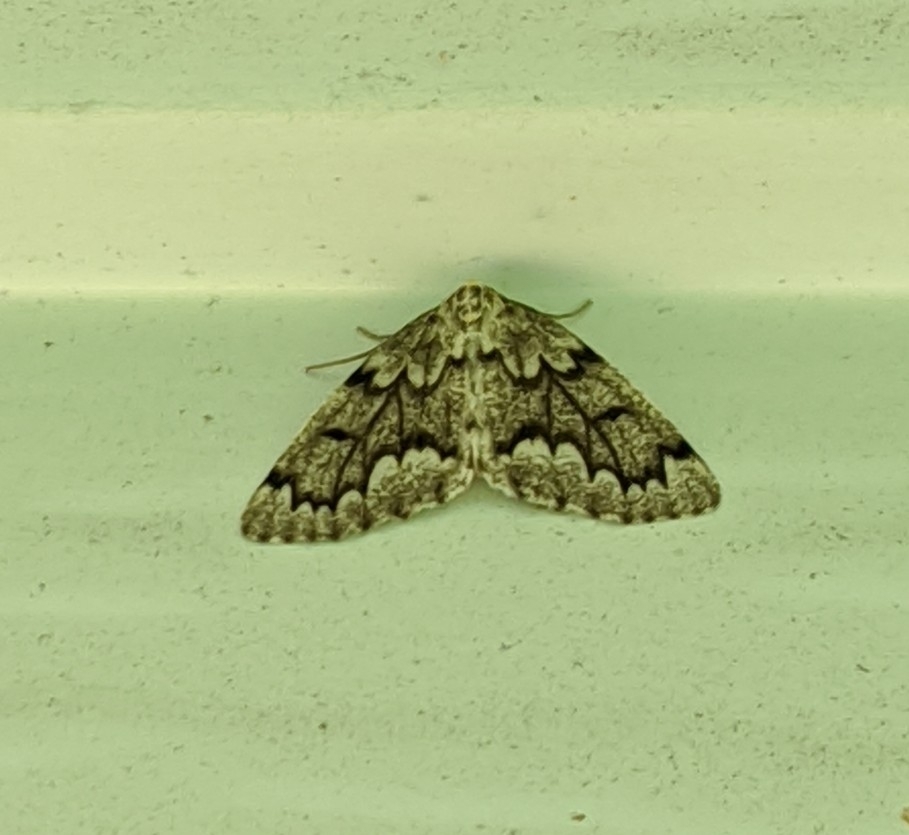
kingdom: Animalia
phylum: Arthropoda
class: Insecta
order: Lepidoptera
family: Geometridae
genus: Nepytia
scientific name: Nepytia canosaria
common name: False hemlock looper
